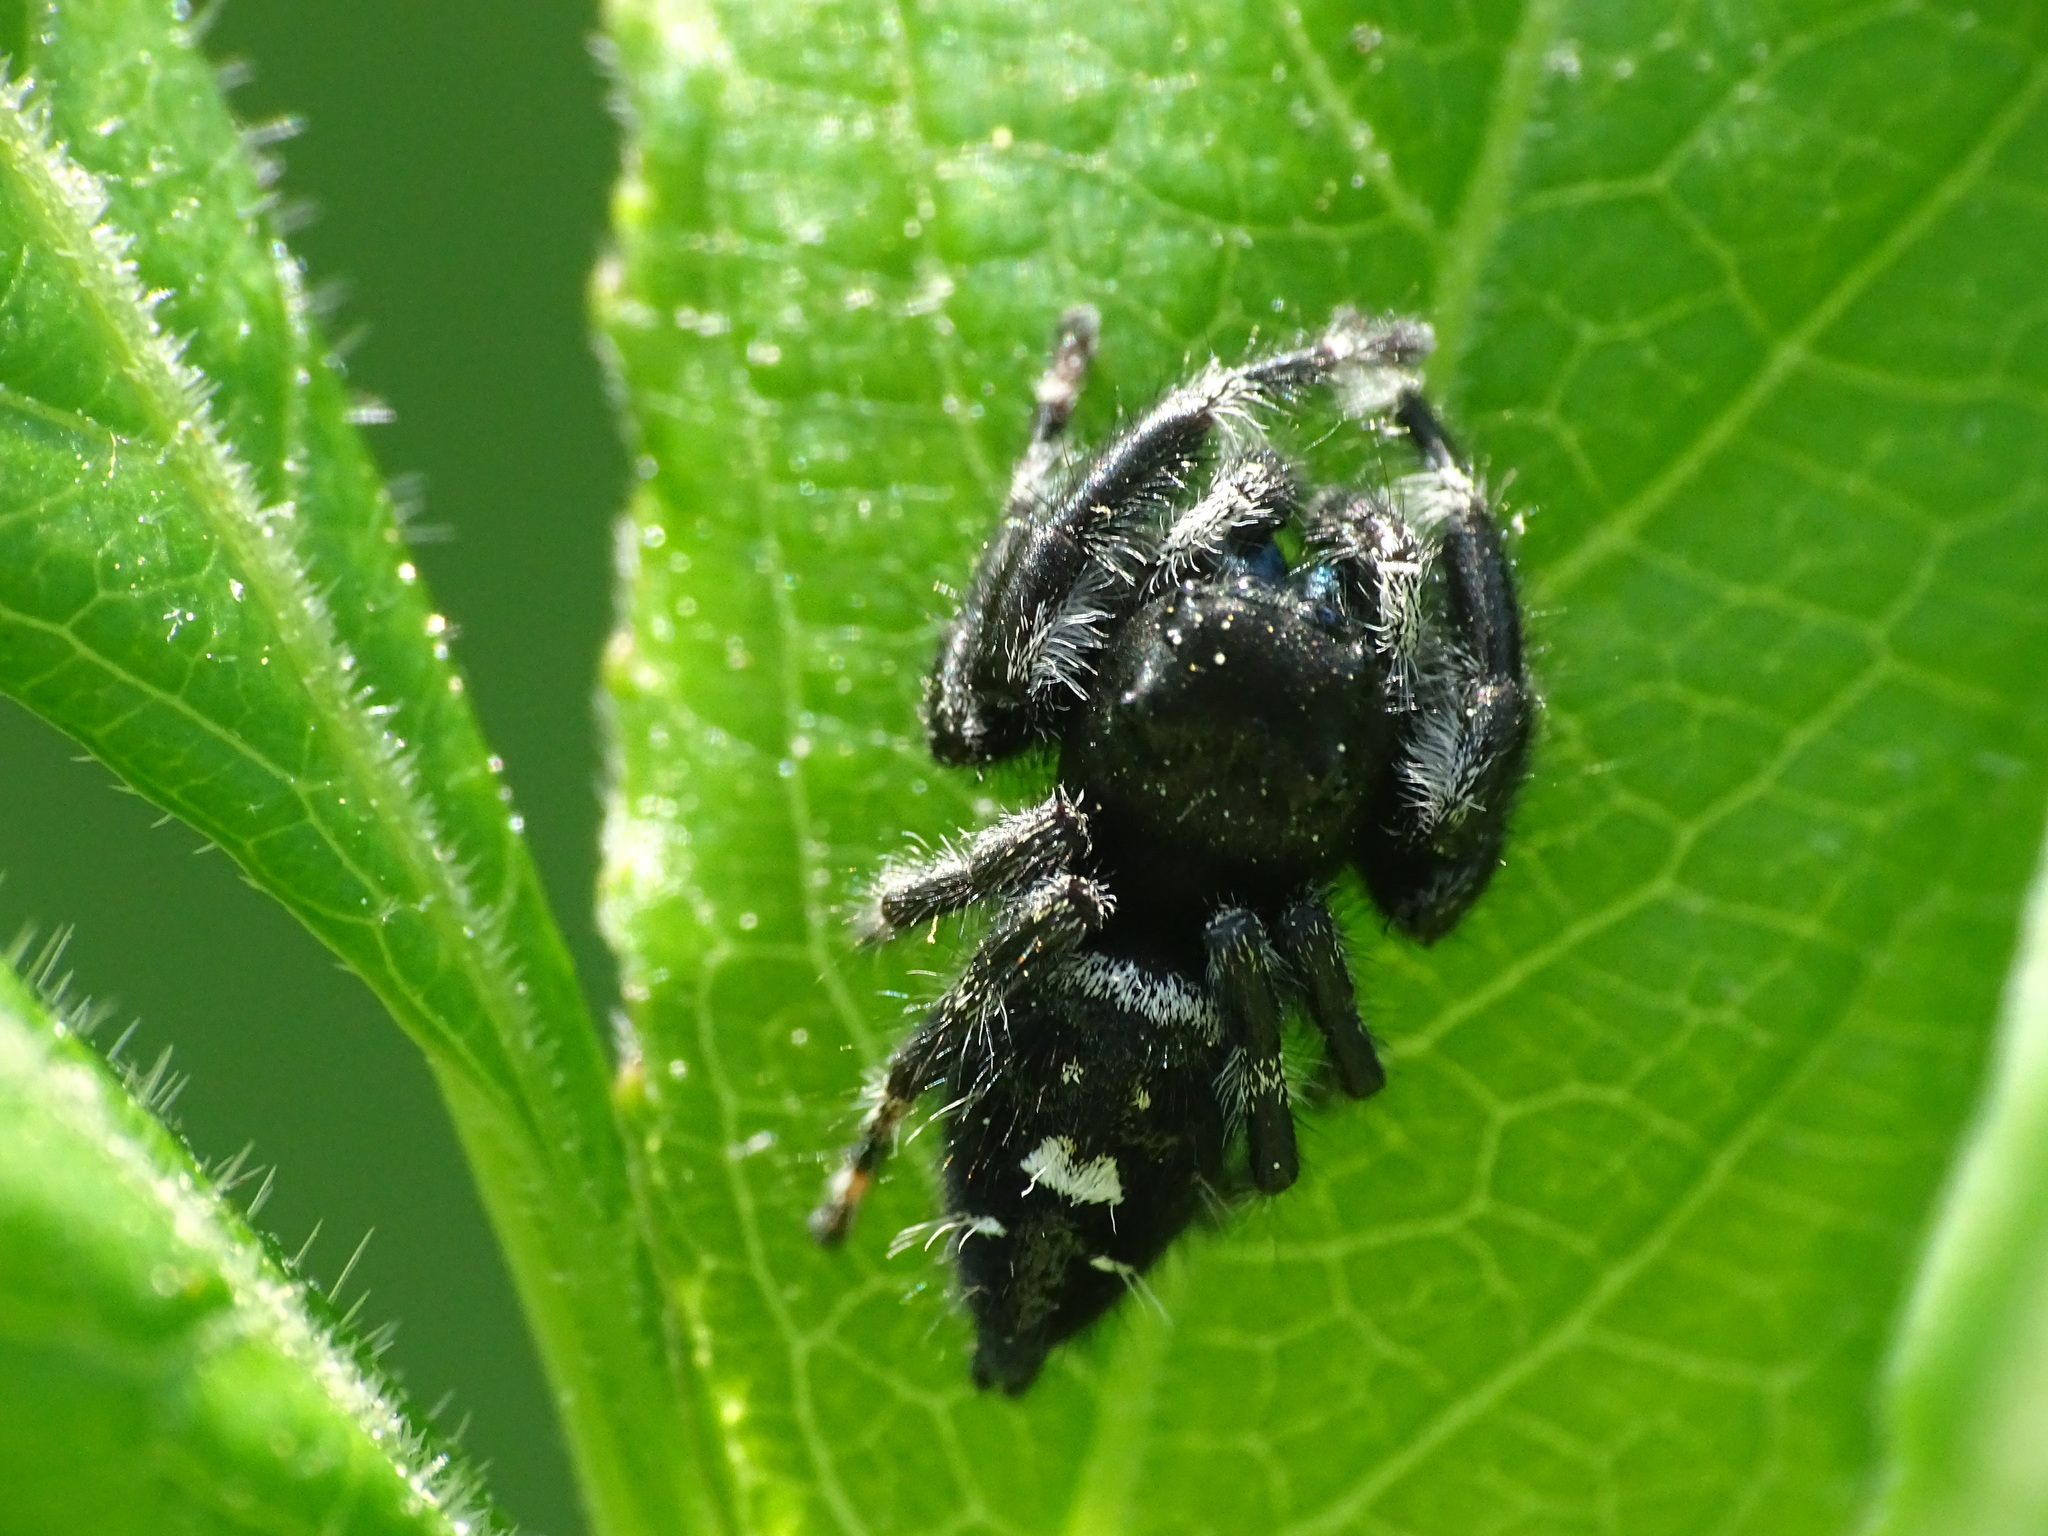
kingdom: Animalia
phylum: Arthropoda
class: Arachnida
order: Araneae
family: Salticidae
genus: Phidippus
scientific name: Phidippus audax
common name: Bold jumper
